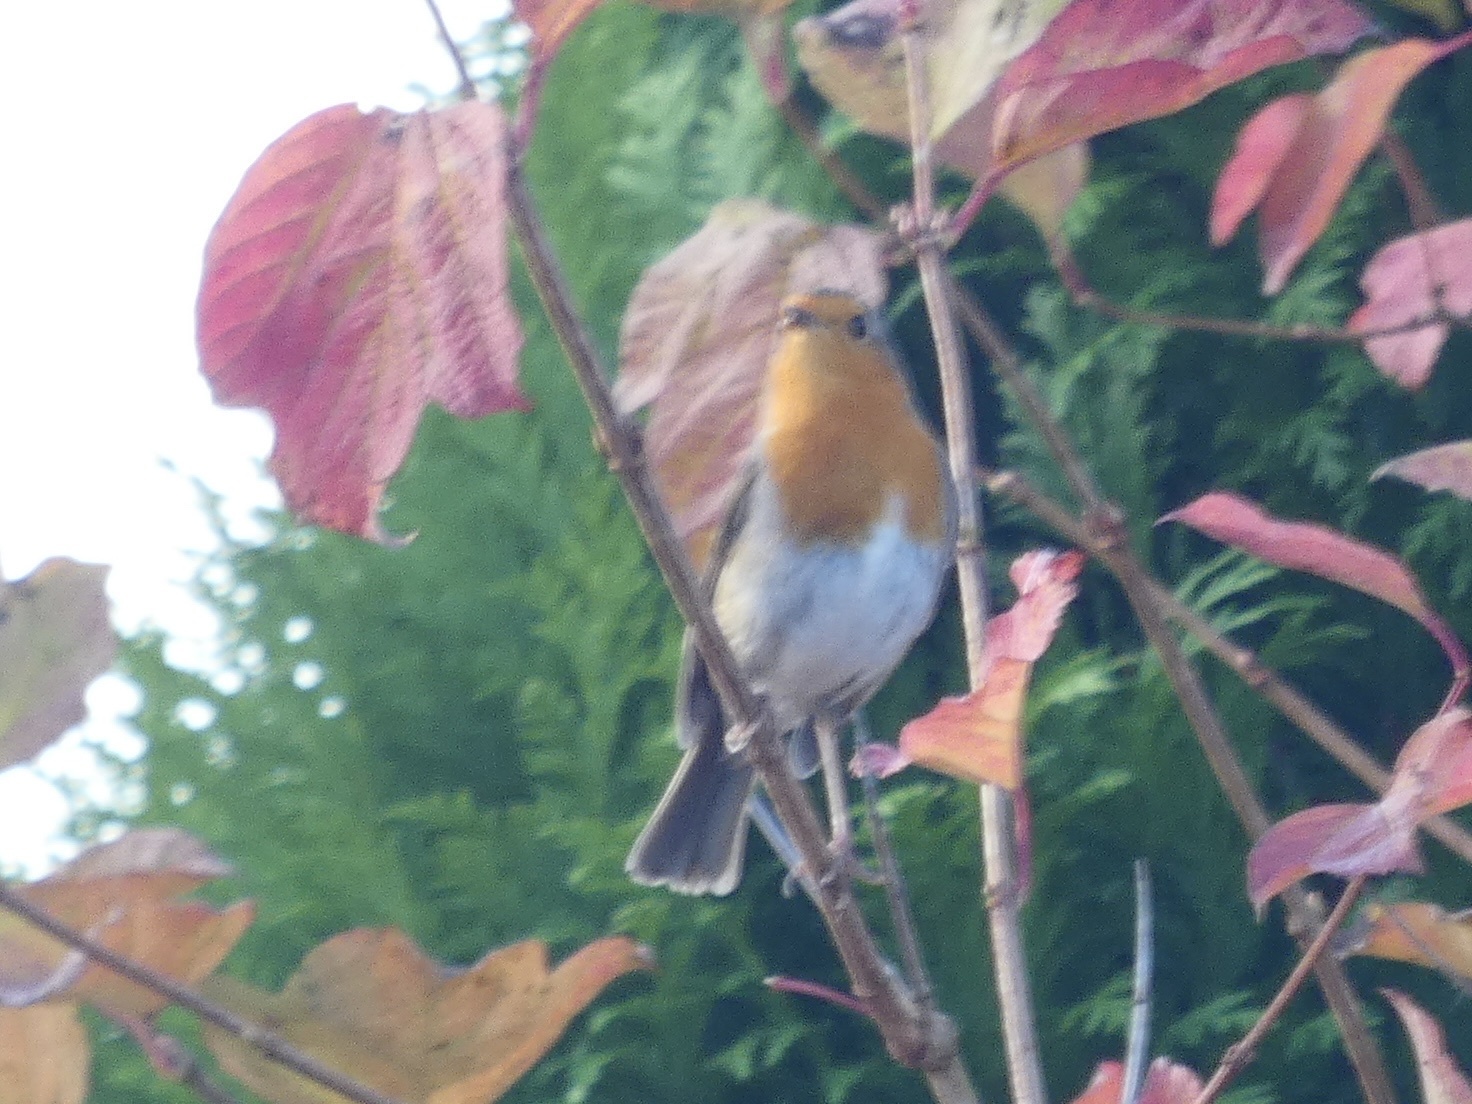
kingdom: Animalia
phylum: Chordata
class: Aves
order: Passeriformes
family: Muscicapidae
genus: Erithacus
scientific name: Erithacus rubecula
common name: European robin
